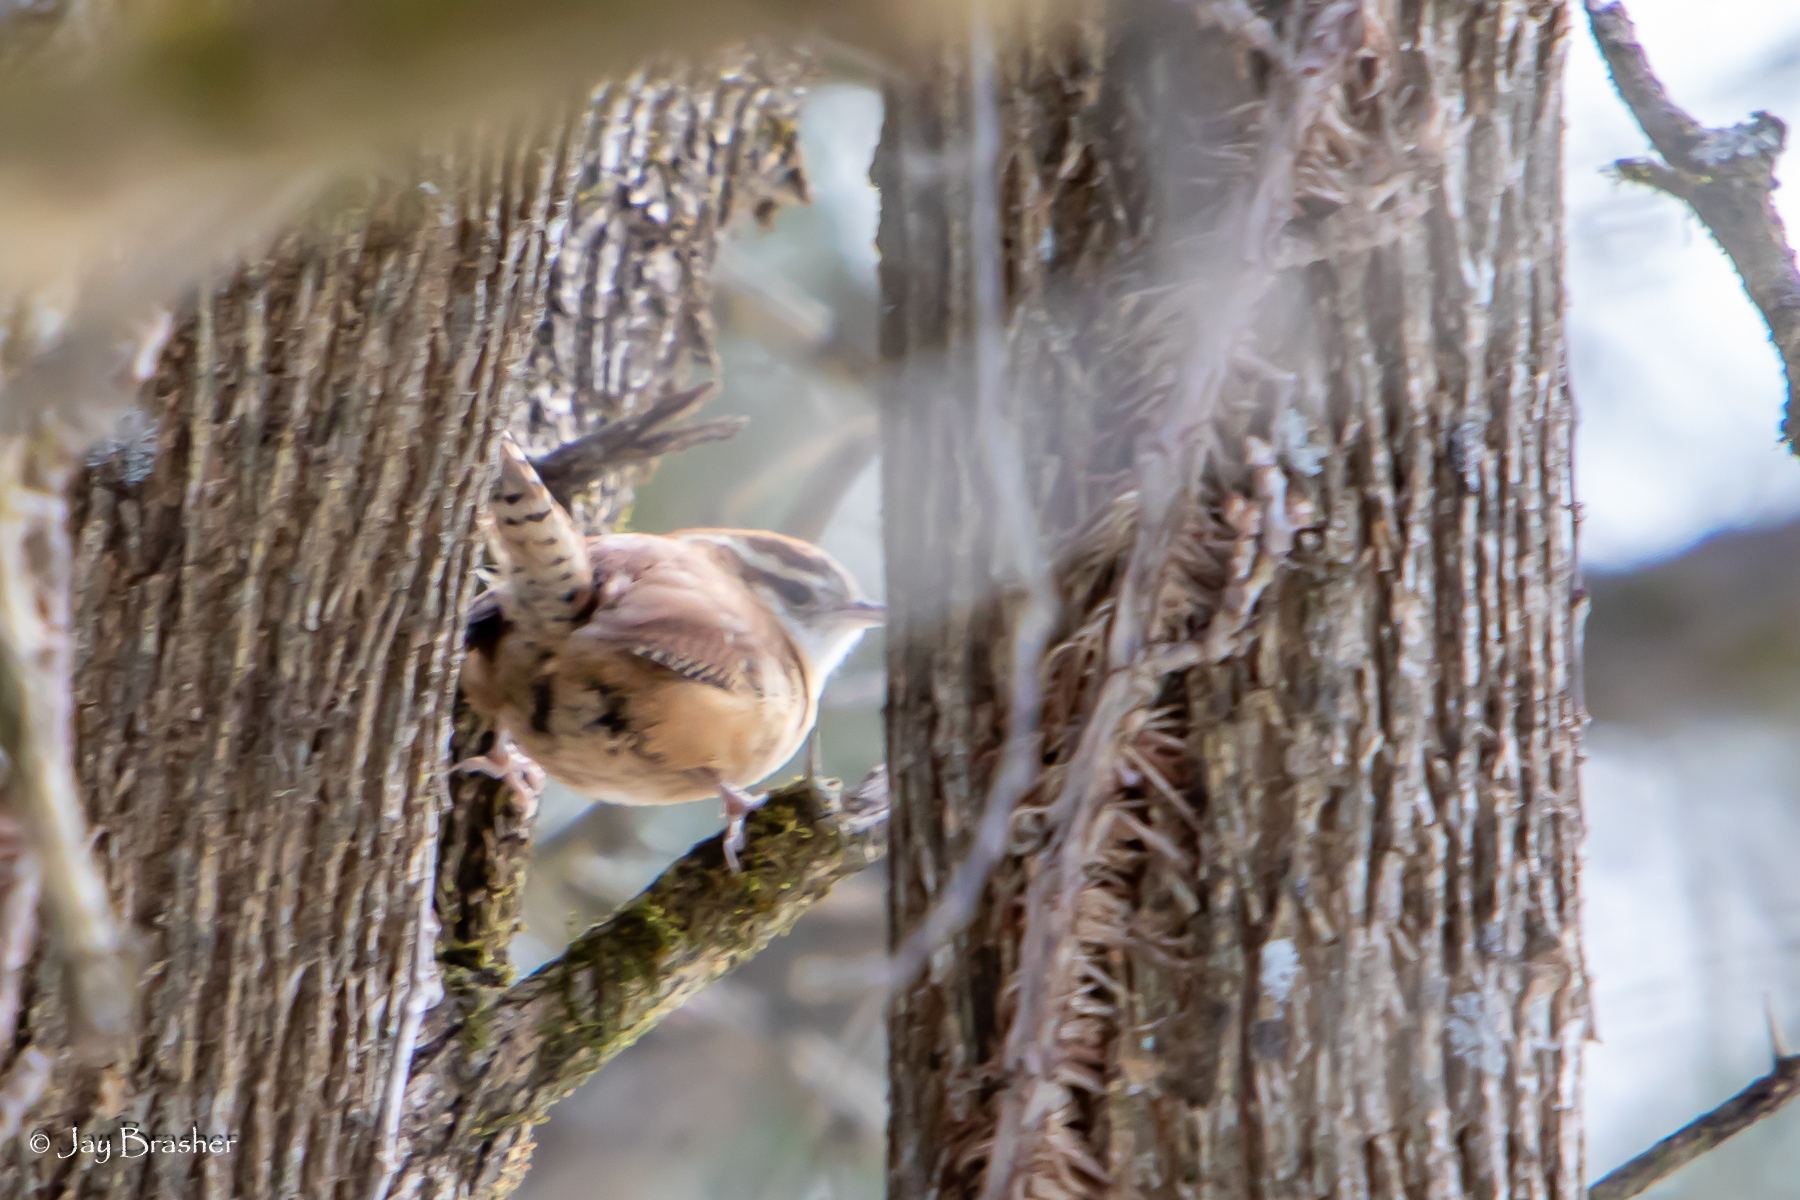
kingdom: Animalia
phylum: Chordata
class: Aves
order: Passeriformes
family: Troglodytidae
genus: Thryothorus
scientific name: Thryothorus ludovicianus
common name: Carolina wren
